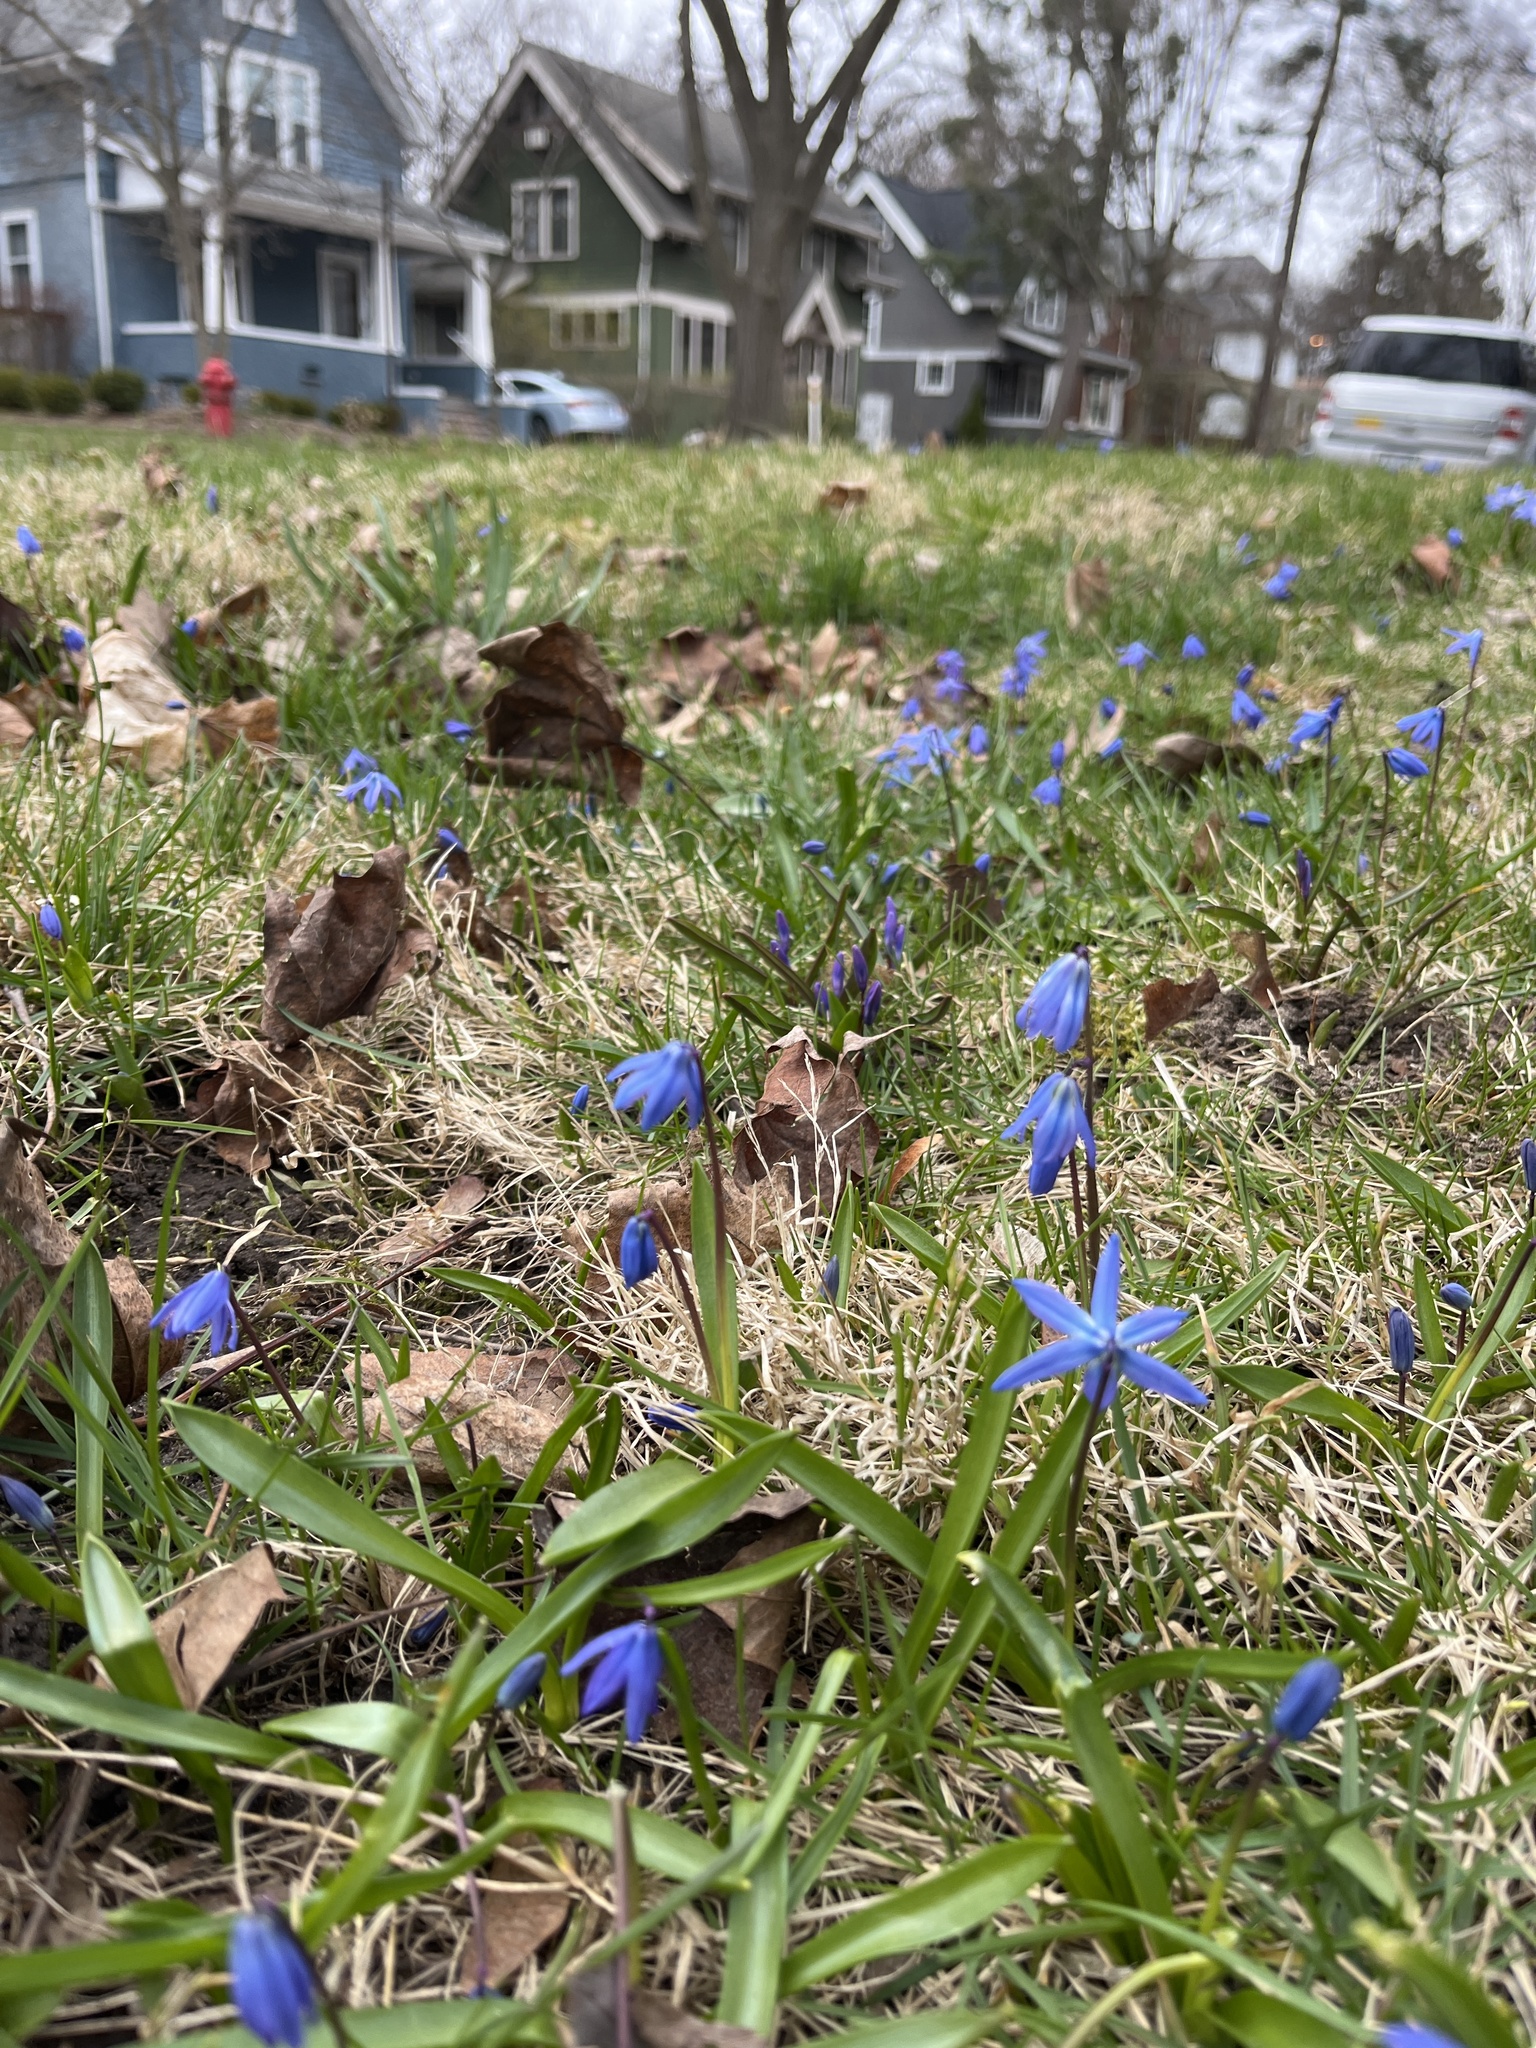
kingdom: Plantae
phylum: Tracheophyta
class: Liliopsida
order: Asparagales
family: Asparagaceae
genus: Scilla
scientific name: Scilla siberica
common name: Siberian squill
